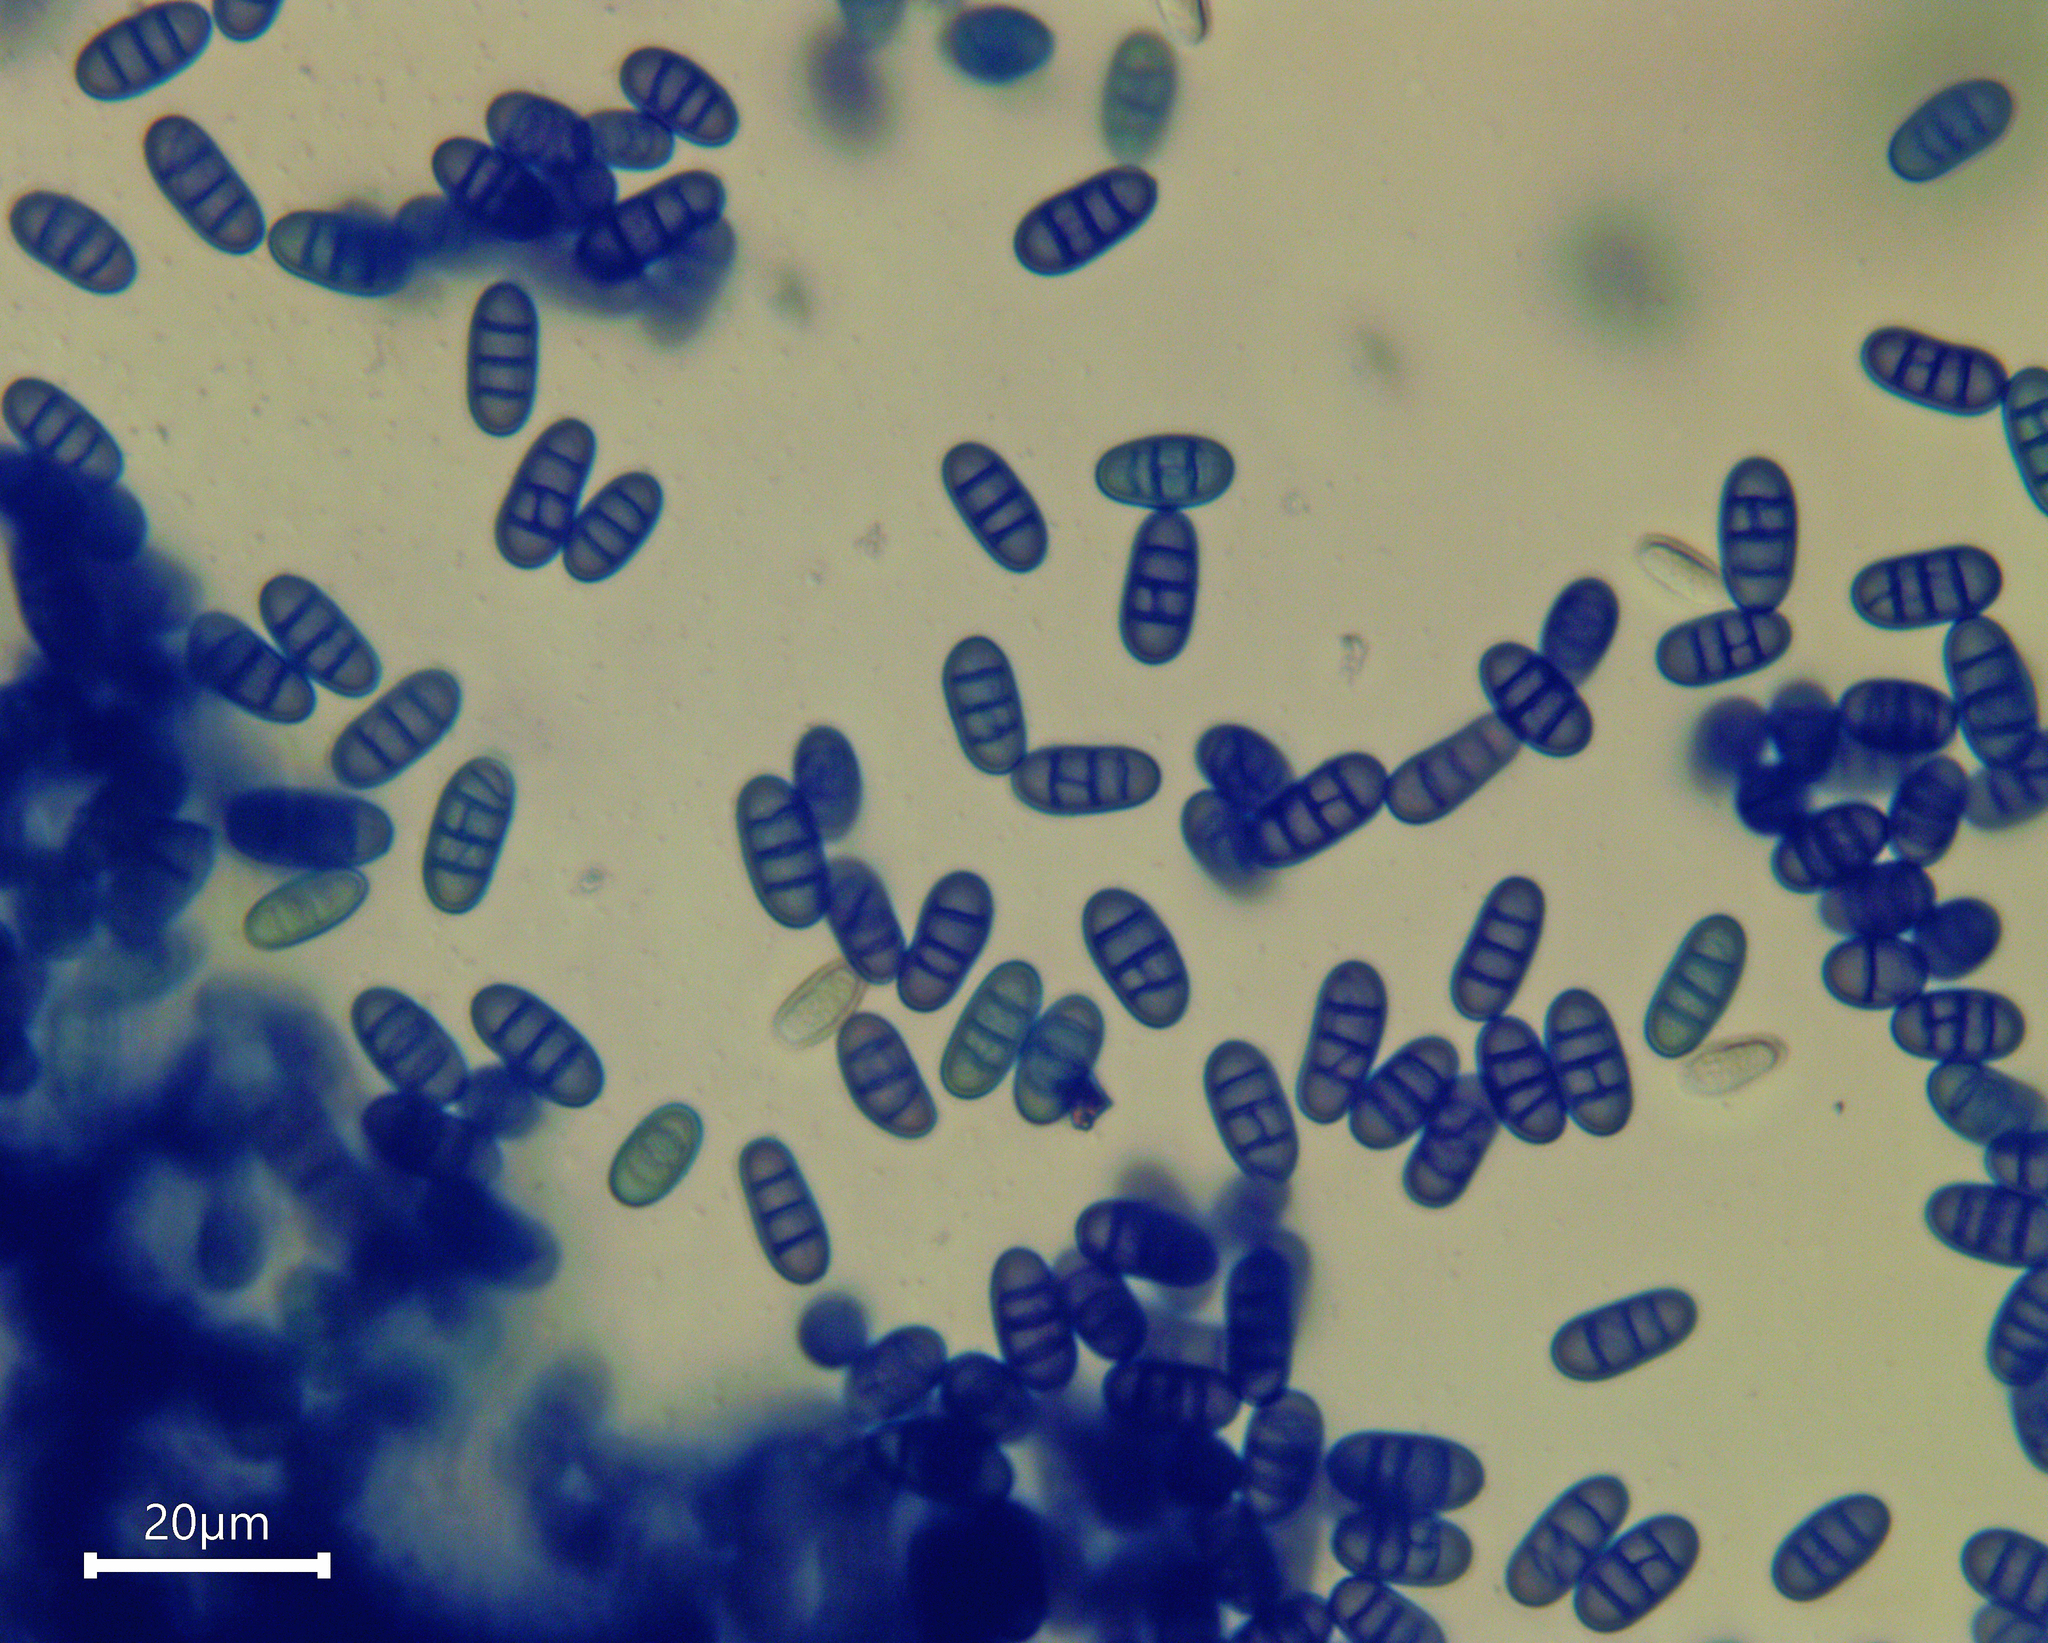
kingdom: Fungi
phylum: Ascomycota
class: Dothideomycetes
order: Pleosporales
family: Didymosphaeriaceae
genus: Pseudocamarosporium
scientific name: Pseudocamarosporium brabeji
